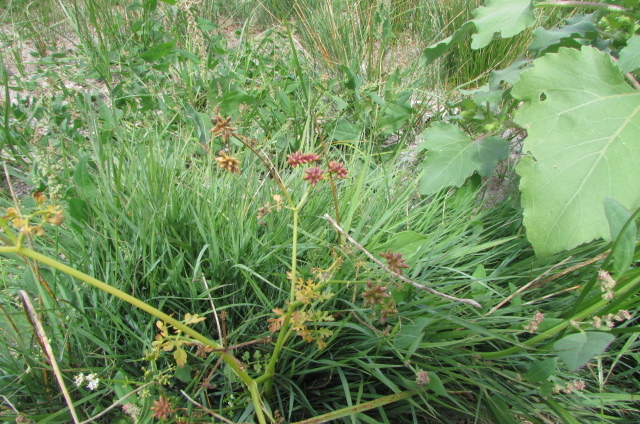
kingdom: Plantae
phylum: Tracheophyta
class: Magnoliopsida
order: Apiales
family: Apiaceae
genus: Oenanthe
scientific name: Oenanthe aquatica
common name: Fine-leaved water-dropwort
